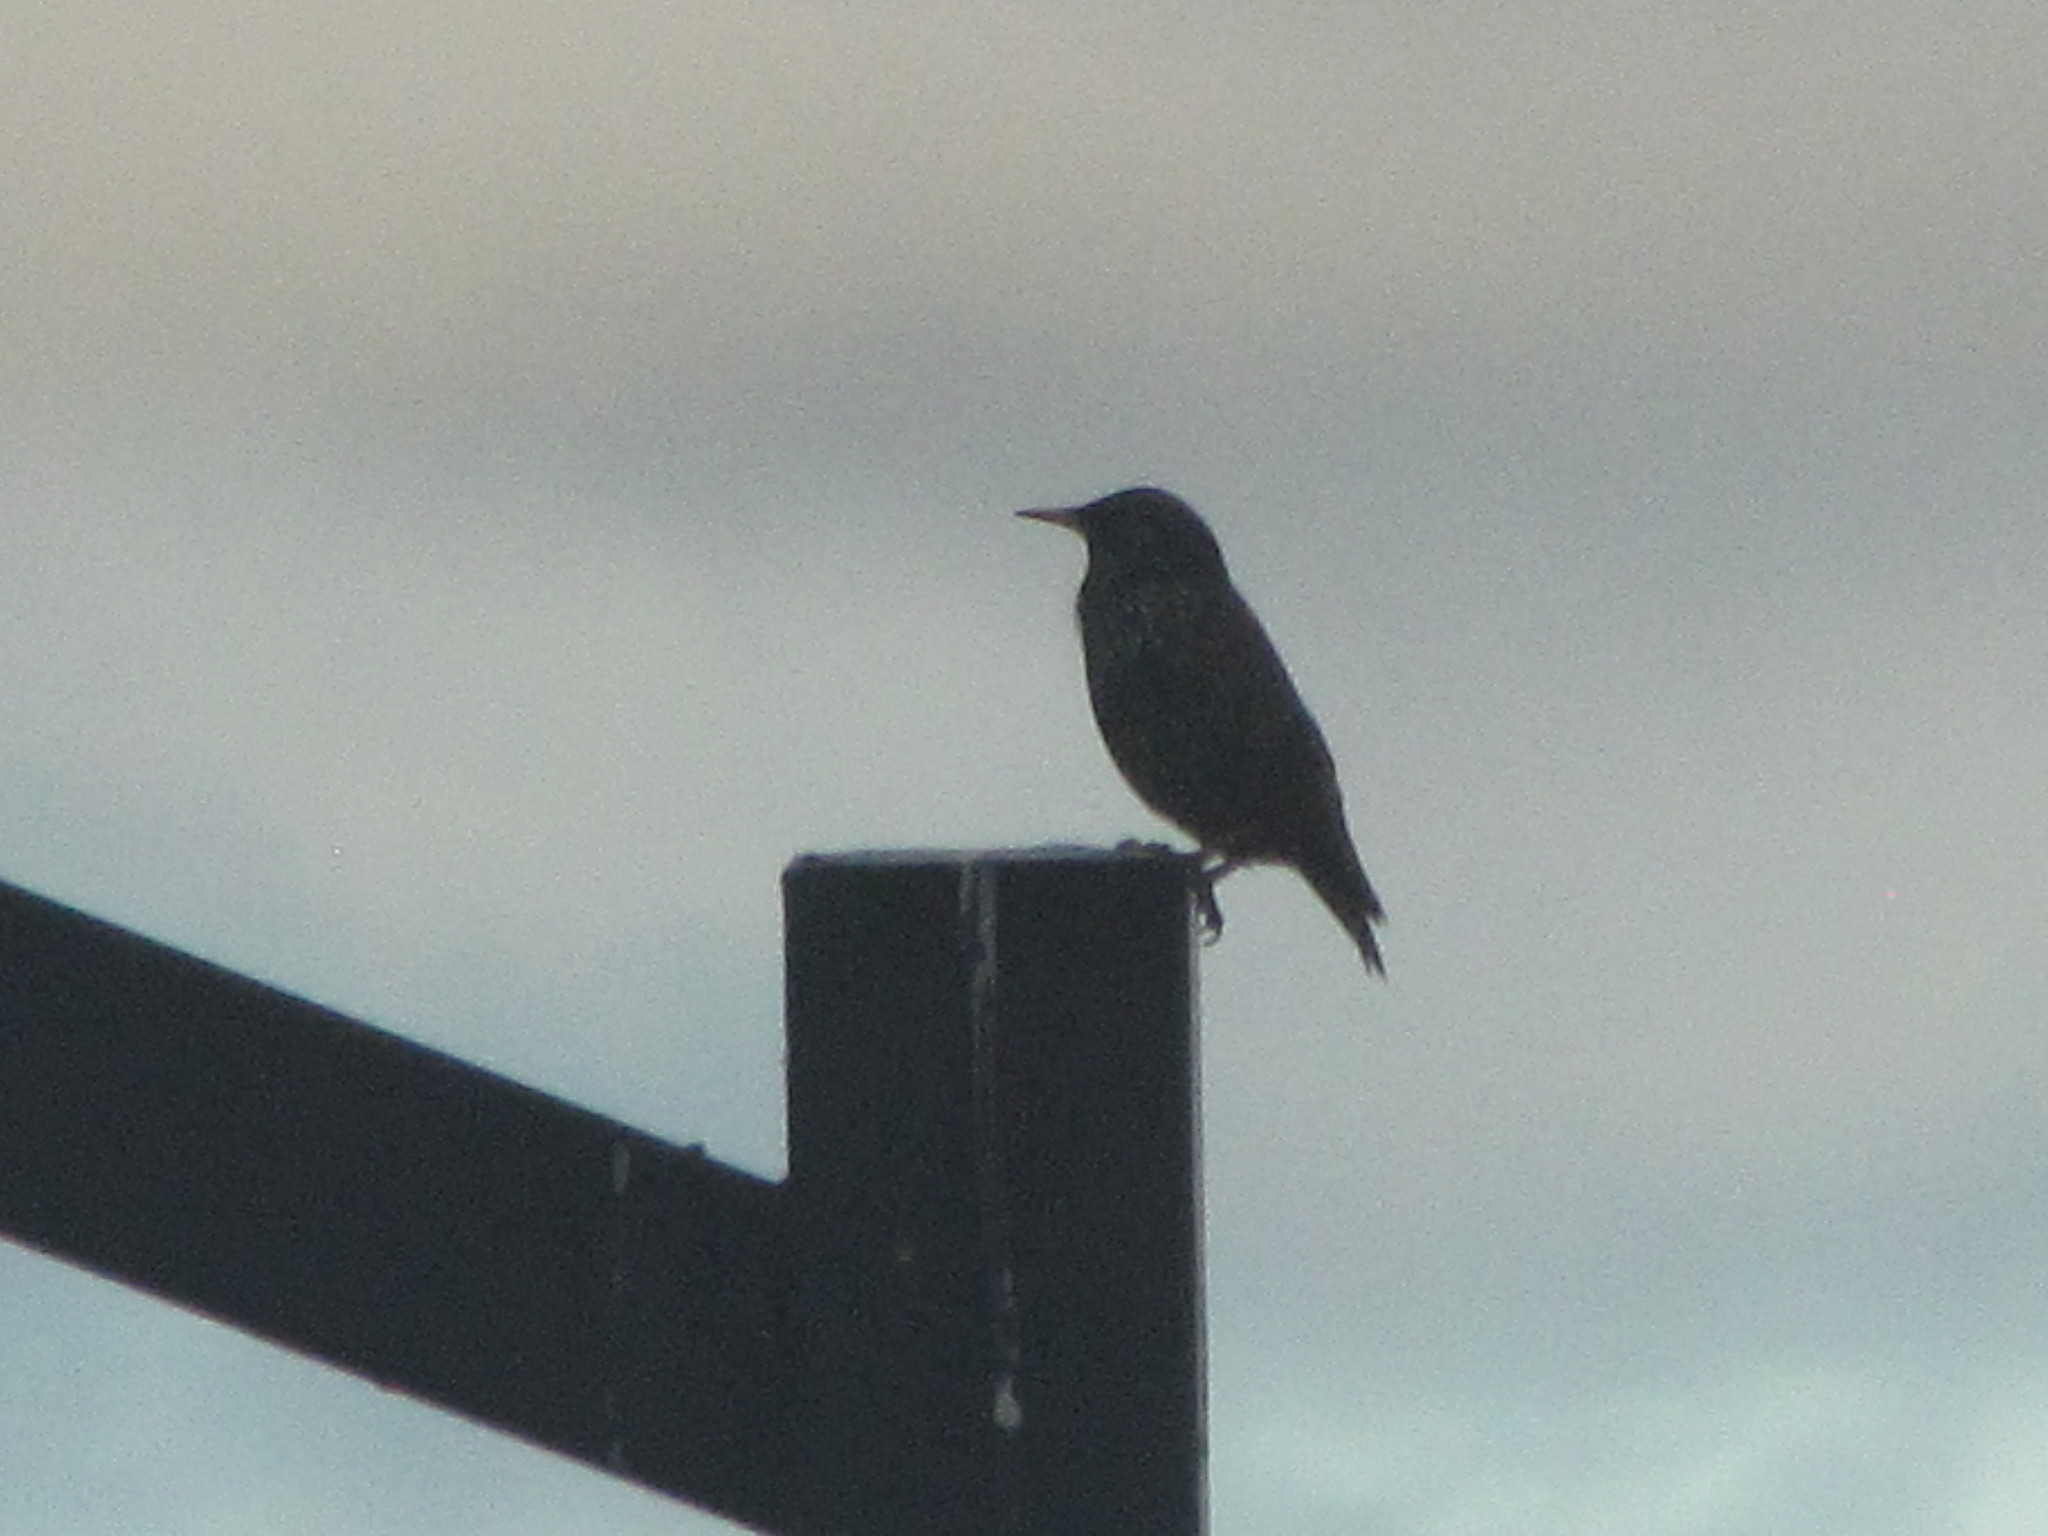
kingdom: Animalia
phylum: Chordata
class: Aves
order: Passeriformes
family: Sturnidae
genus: Sturnus
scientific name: Sturnus vulgaris
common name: Common starling
